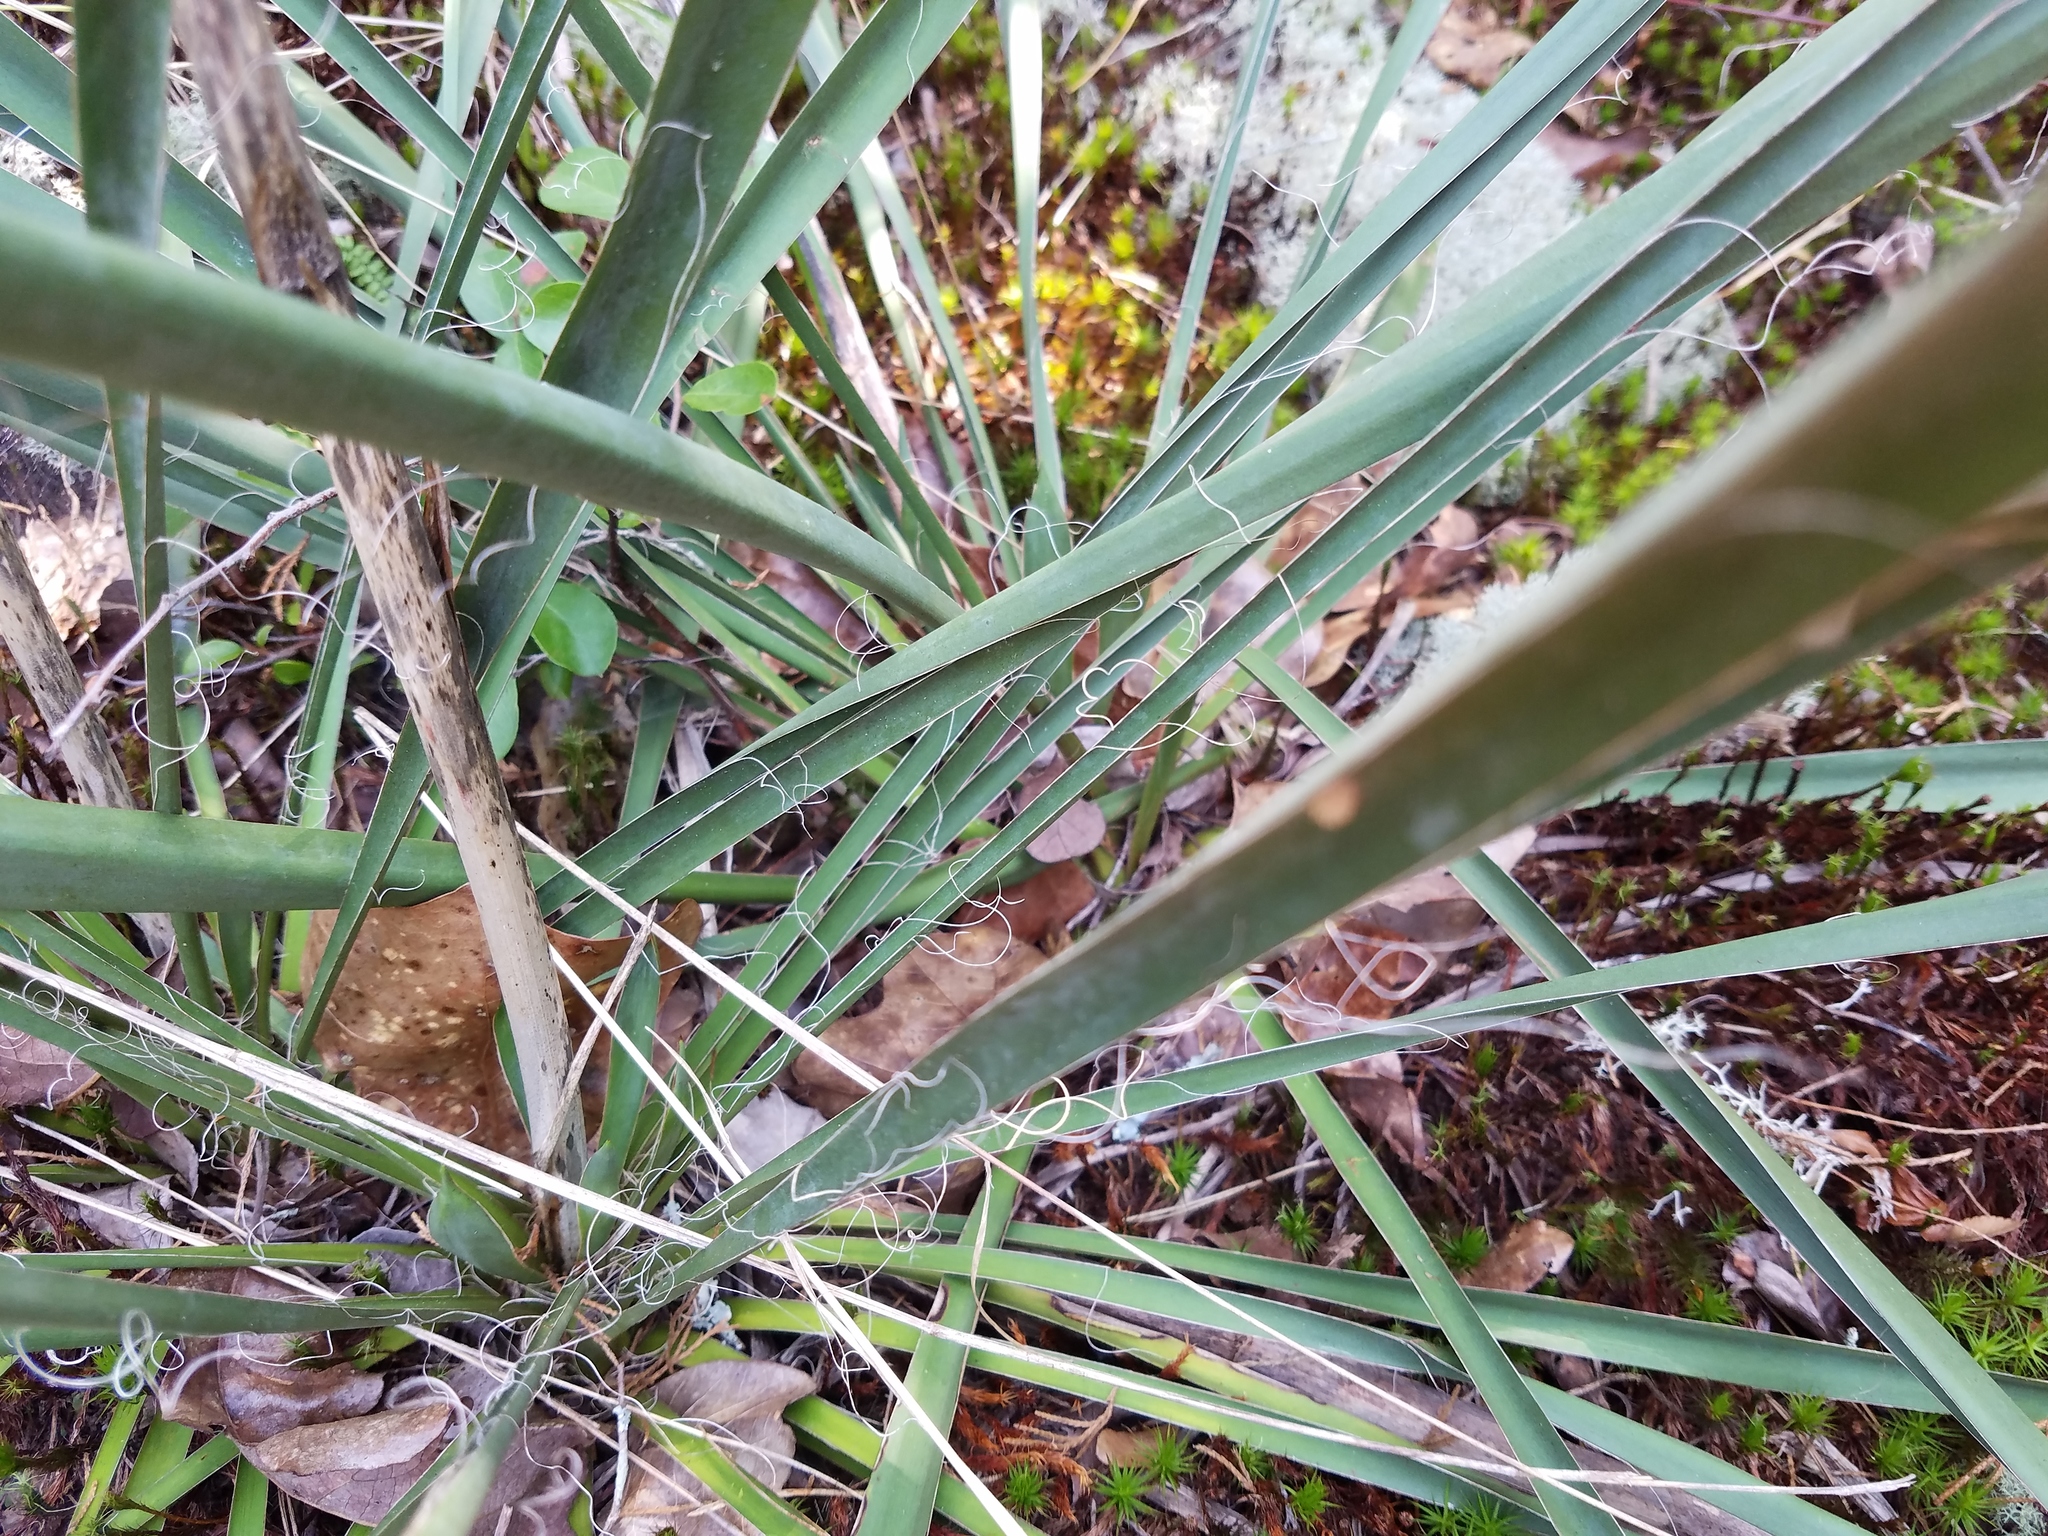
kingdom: Plantae
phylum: Tracheophyta
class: Liliopsida
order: Asparagales
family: Asparagaceae
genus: Yucca
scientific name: Yucca filamentosa
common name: Adam's-needle
